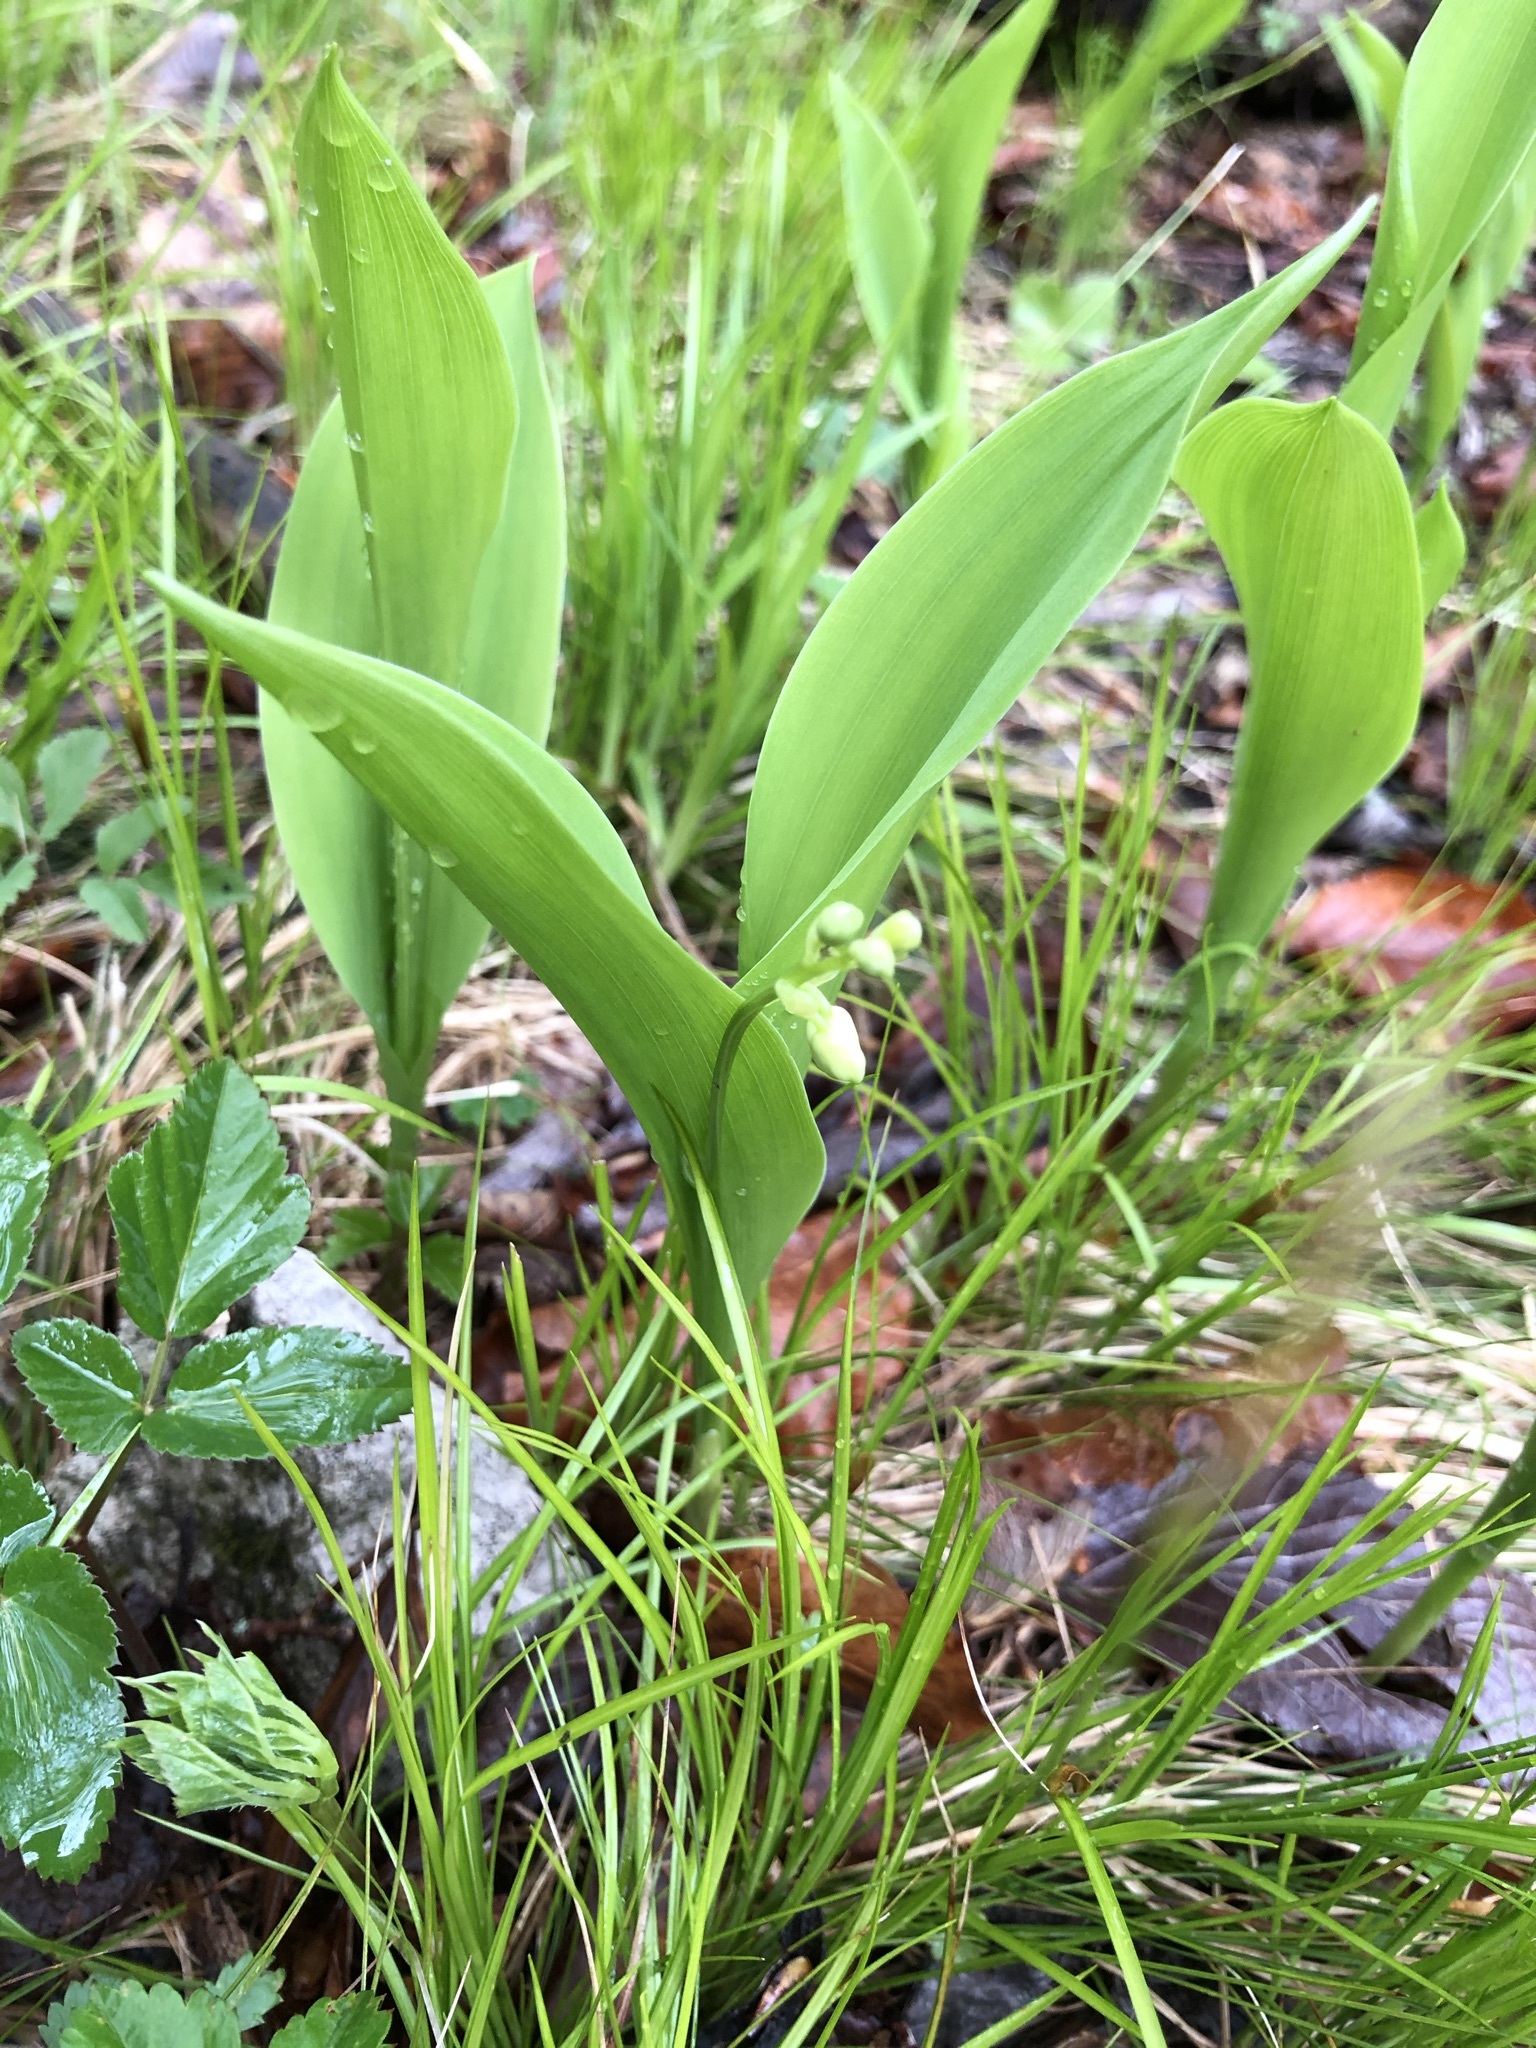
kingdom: Plantae
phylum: Tracheophyta
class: Liliopsida
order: Asparagales
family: Asparagaceae
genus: Convallaria
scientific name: Convallaria majalis
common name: Lily-of-the-valley
